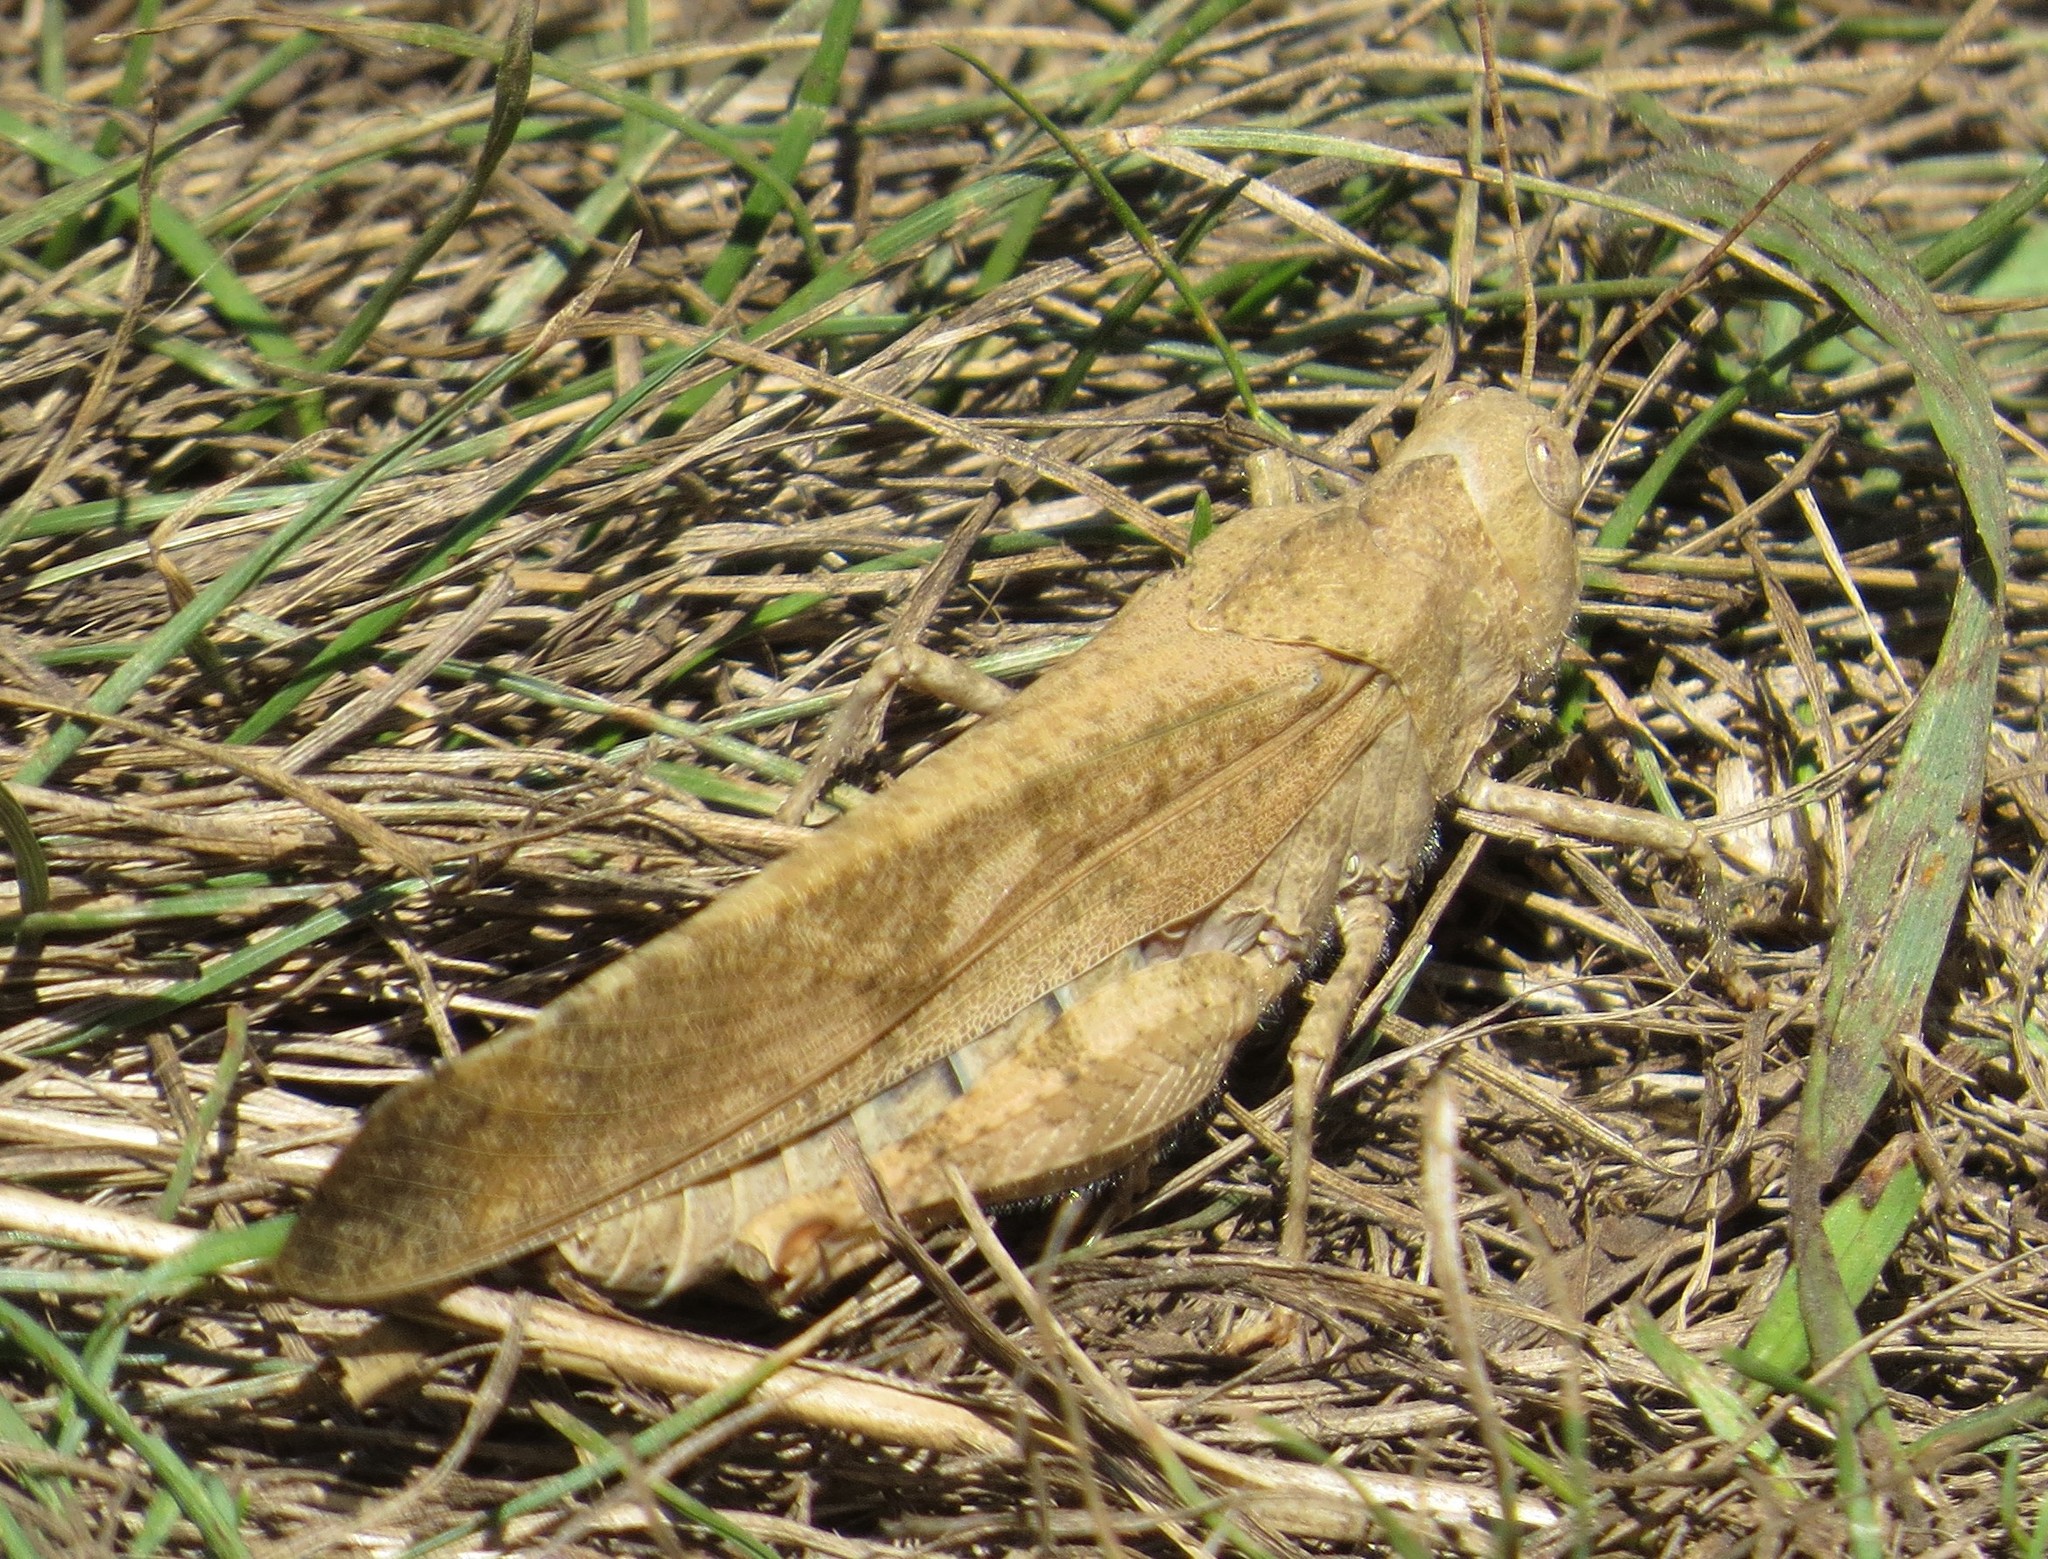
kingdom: Animalia
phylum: Arthropoda
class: Insecta
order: Orthoptera
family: Acrididae
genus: Dissosteira
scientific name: Dissosteira carolina
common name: Carolina grasshopper
